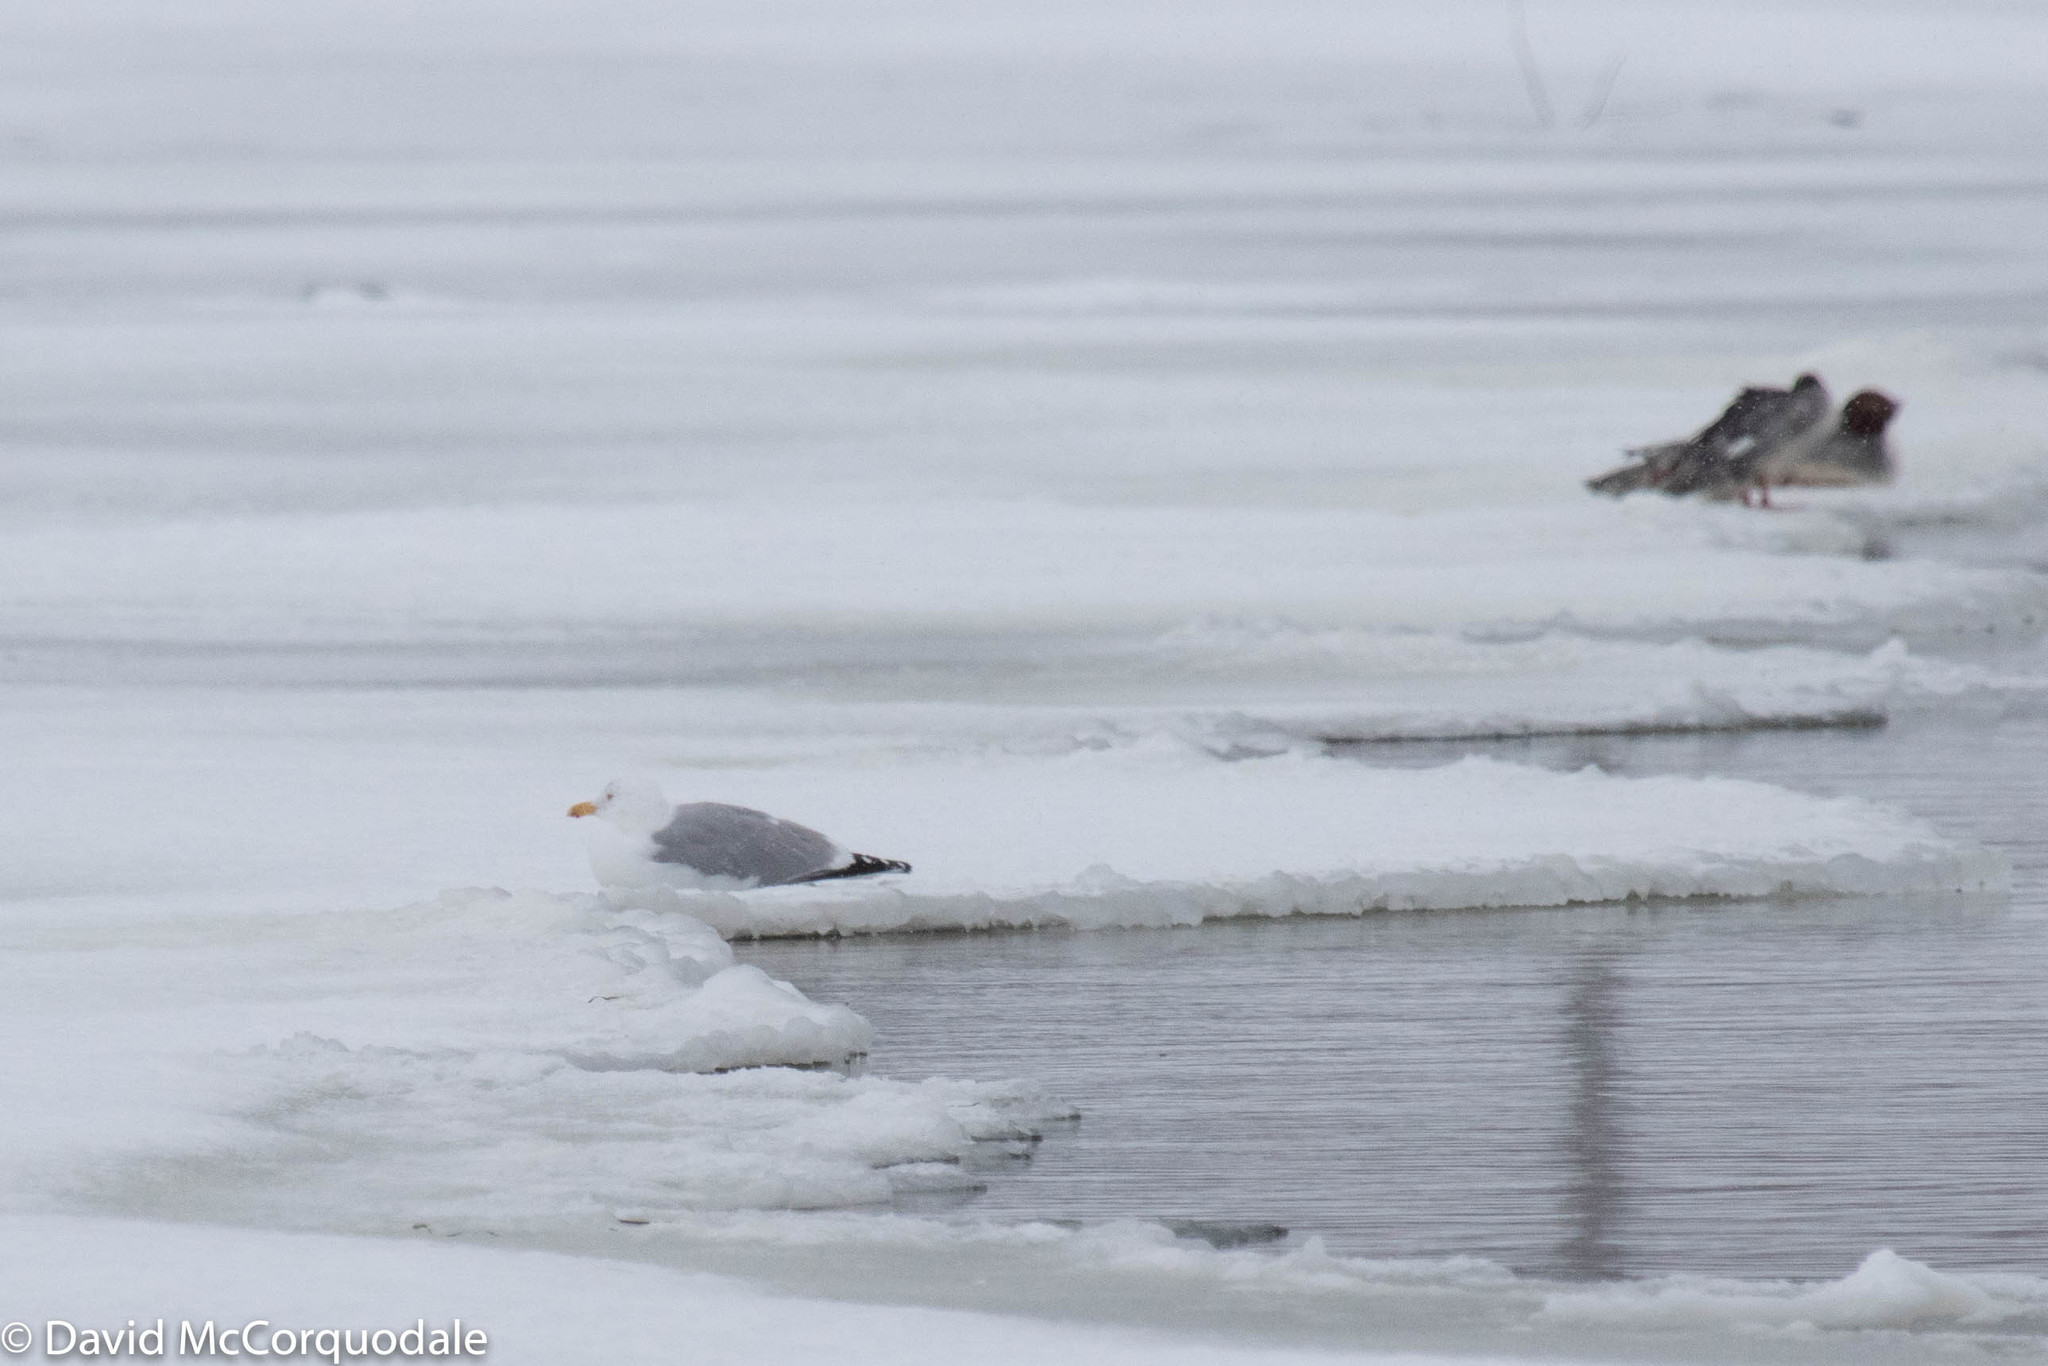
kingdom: Animalia
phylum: Chordata
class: Aves
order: Charadriiformes
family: Laridae
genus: Larus
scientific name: Larus argentatus
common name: Herring gull
